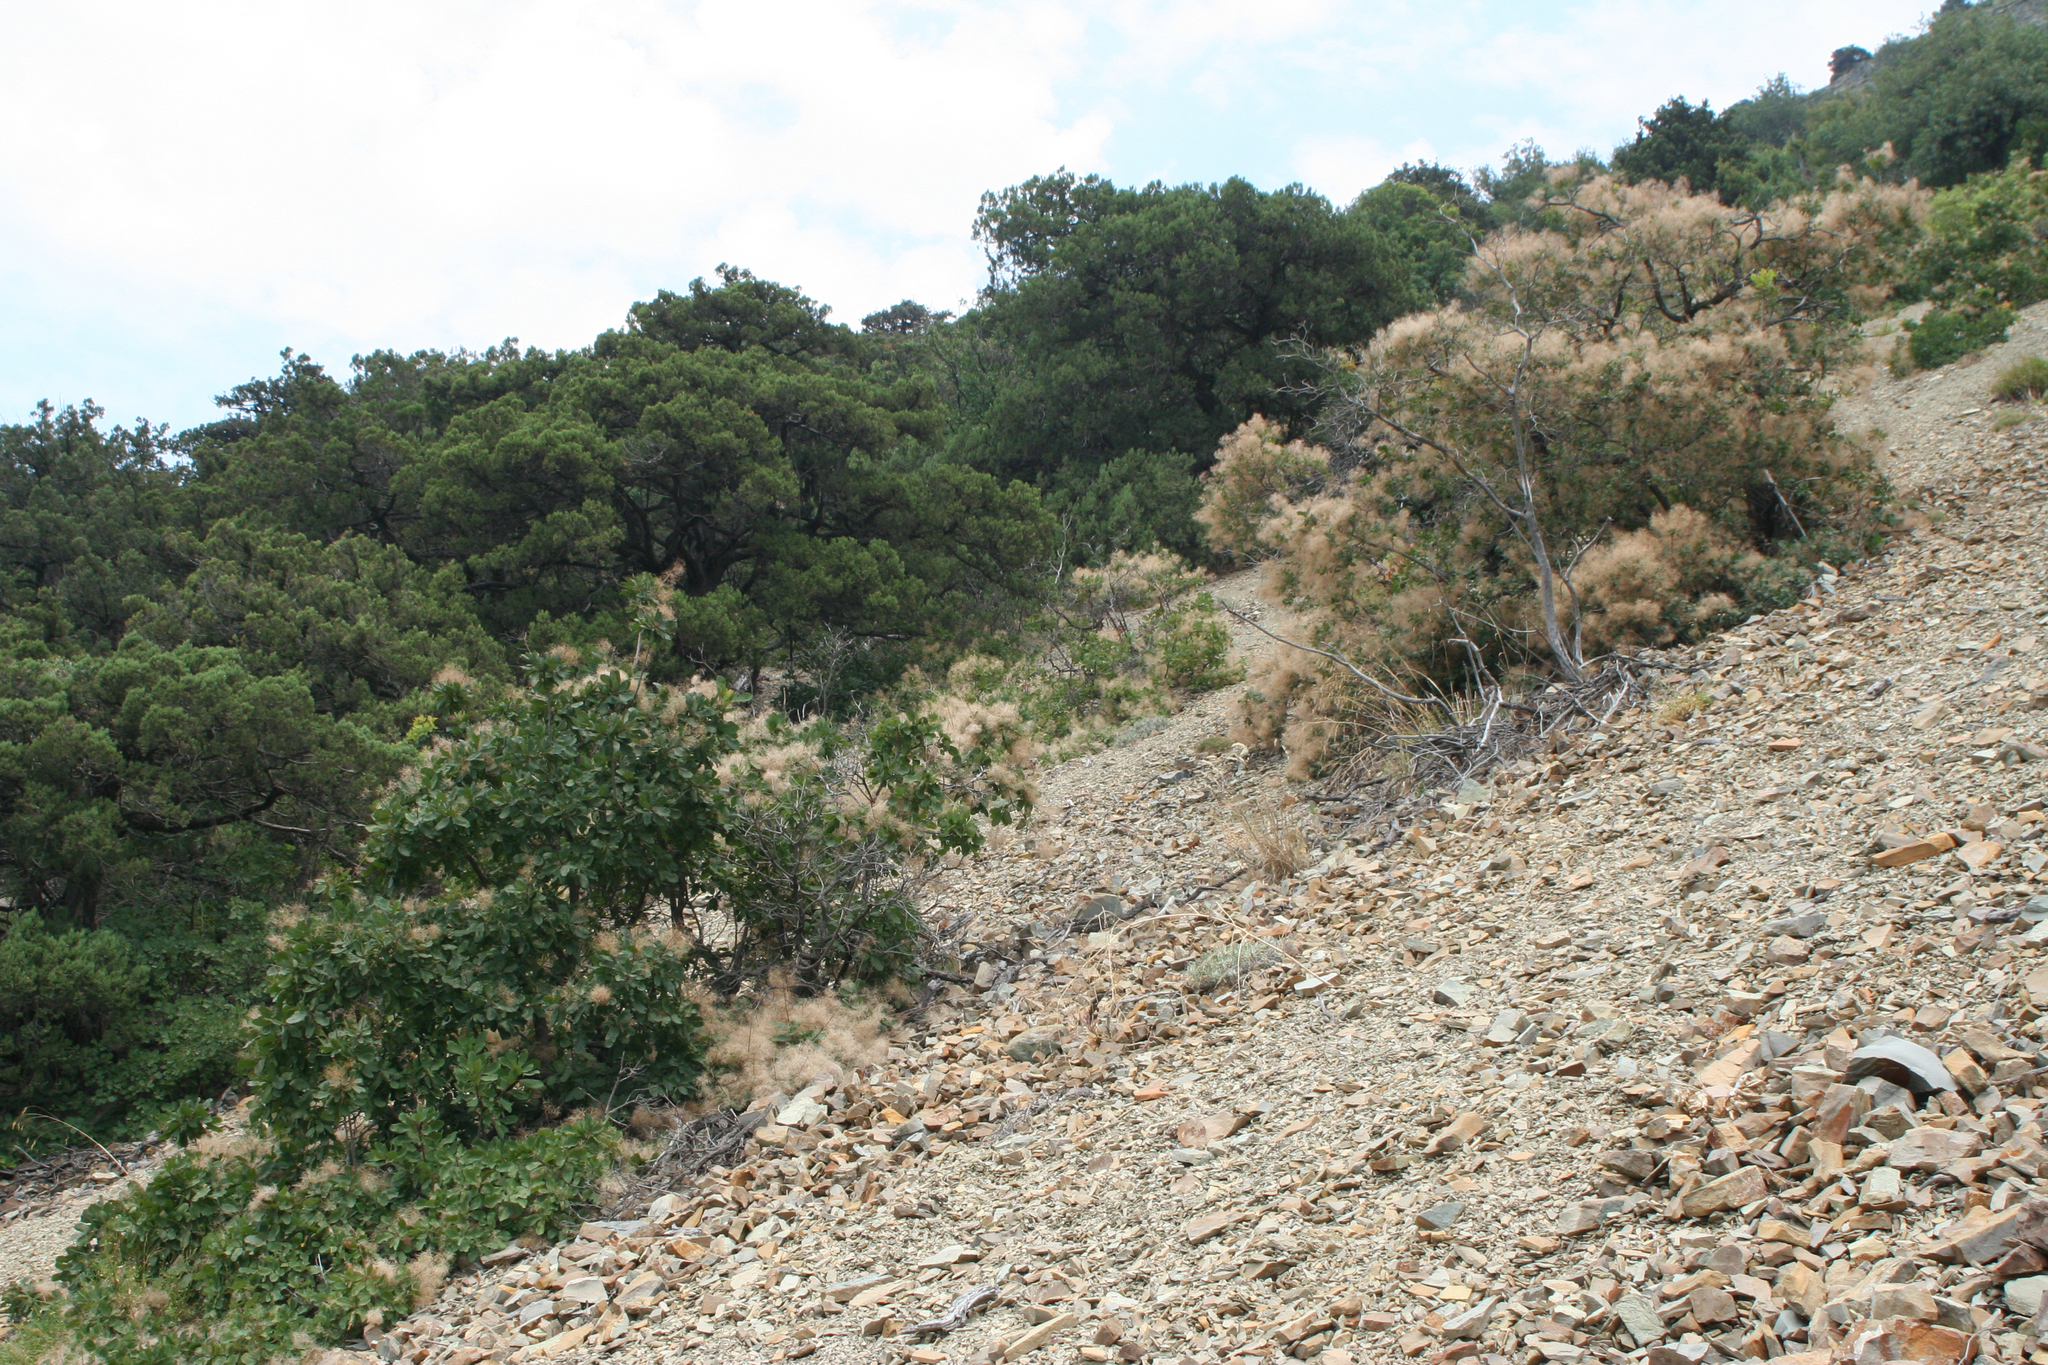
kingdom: Plantae
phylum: Tracheophyta
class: Magnoliopsida
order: Sapindales
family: Anacardiaceae
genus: Cotinus
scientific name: Cotinus coggygria
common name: Smoke-tree
